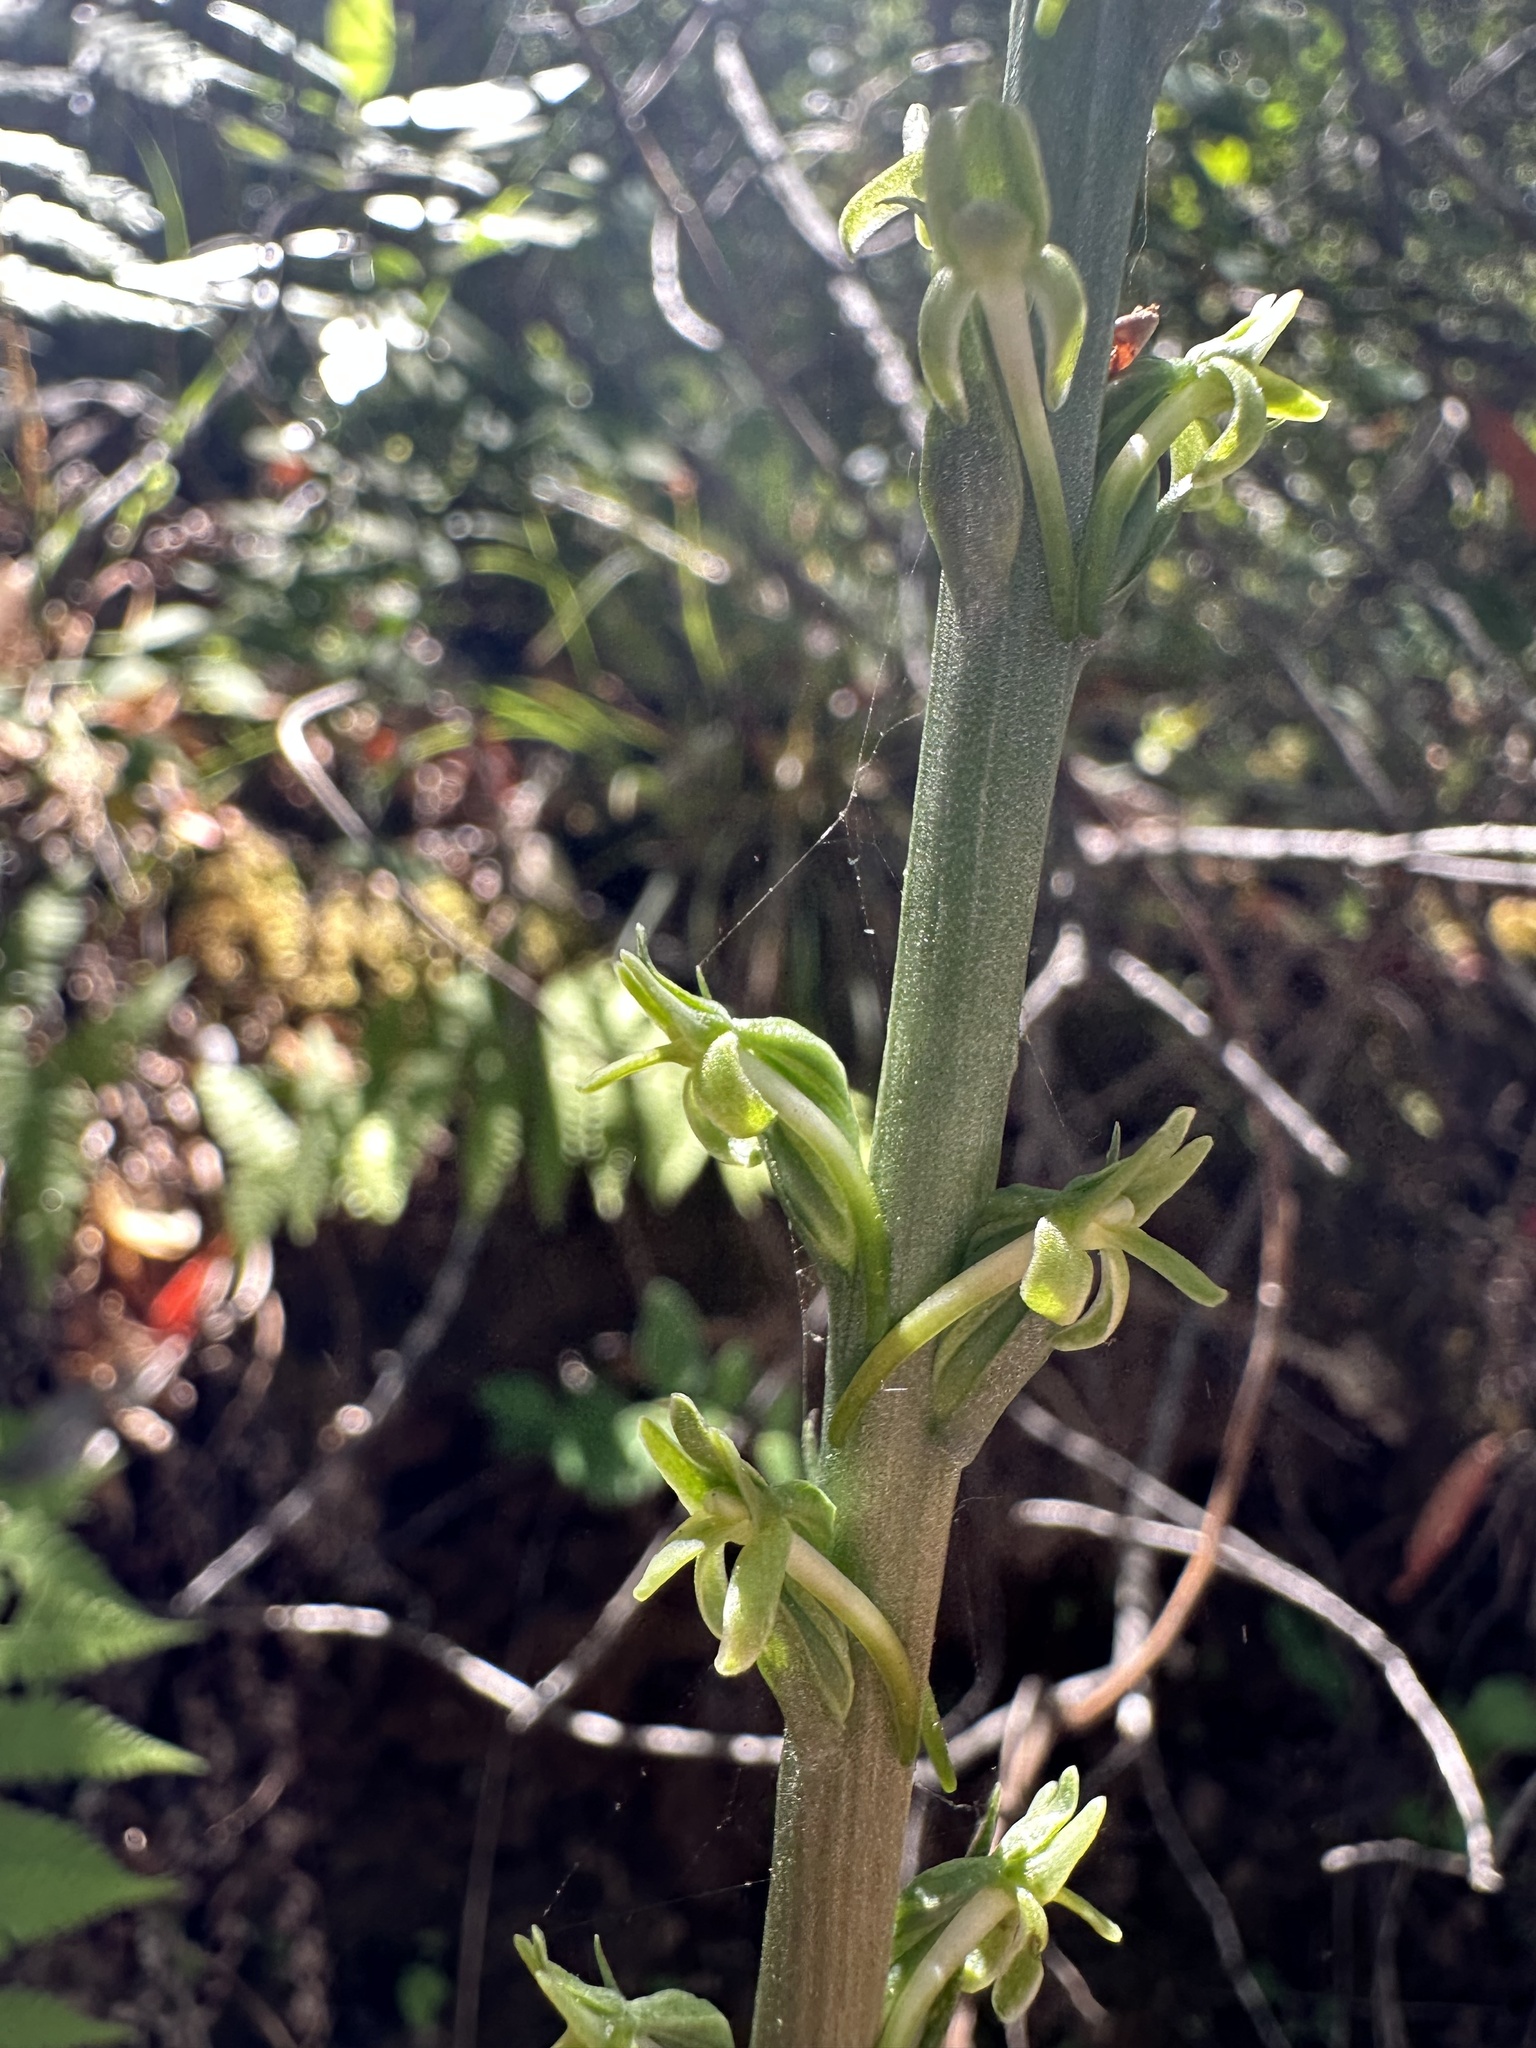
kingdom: Plantae
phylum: Tracheophyta
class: Liliopsida
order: Asparagales
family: Orchidaceae
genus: Platanthera
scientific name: Platanthera elongata
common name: Dense-flowered rein orchid
